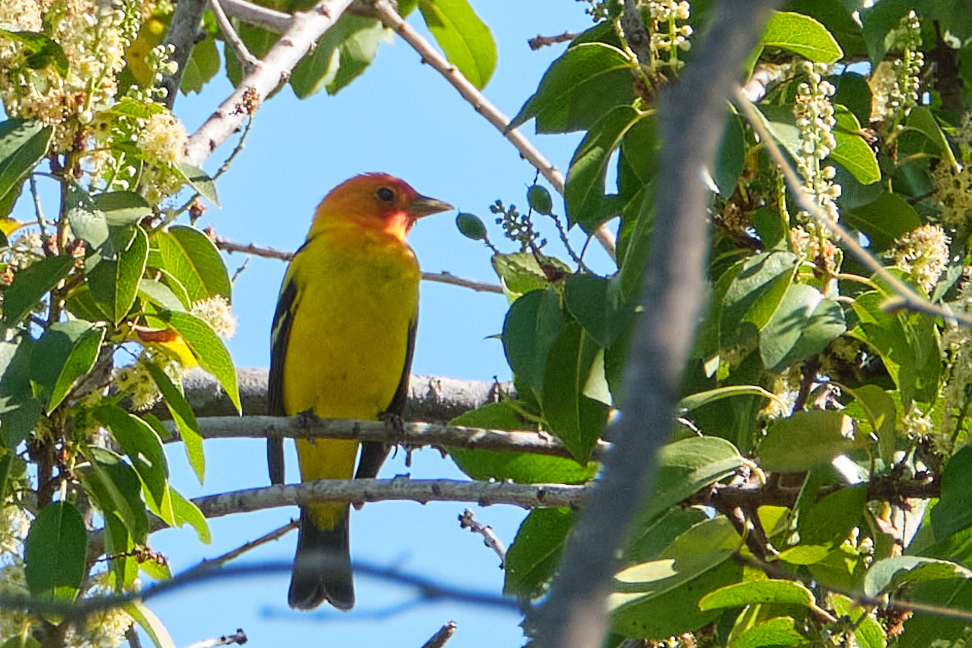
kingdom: Animalia
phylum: Chordata
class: Aves
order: Passeriformes
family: Cardinalidae
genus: Piranga
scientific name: Piranga ludoviciana
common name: Western tanager
